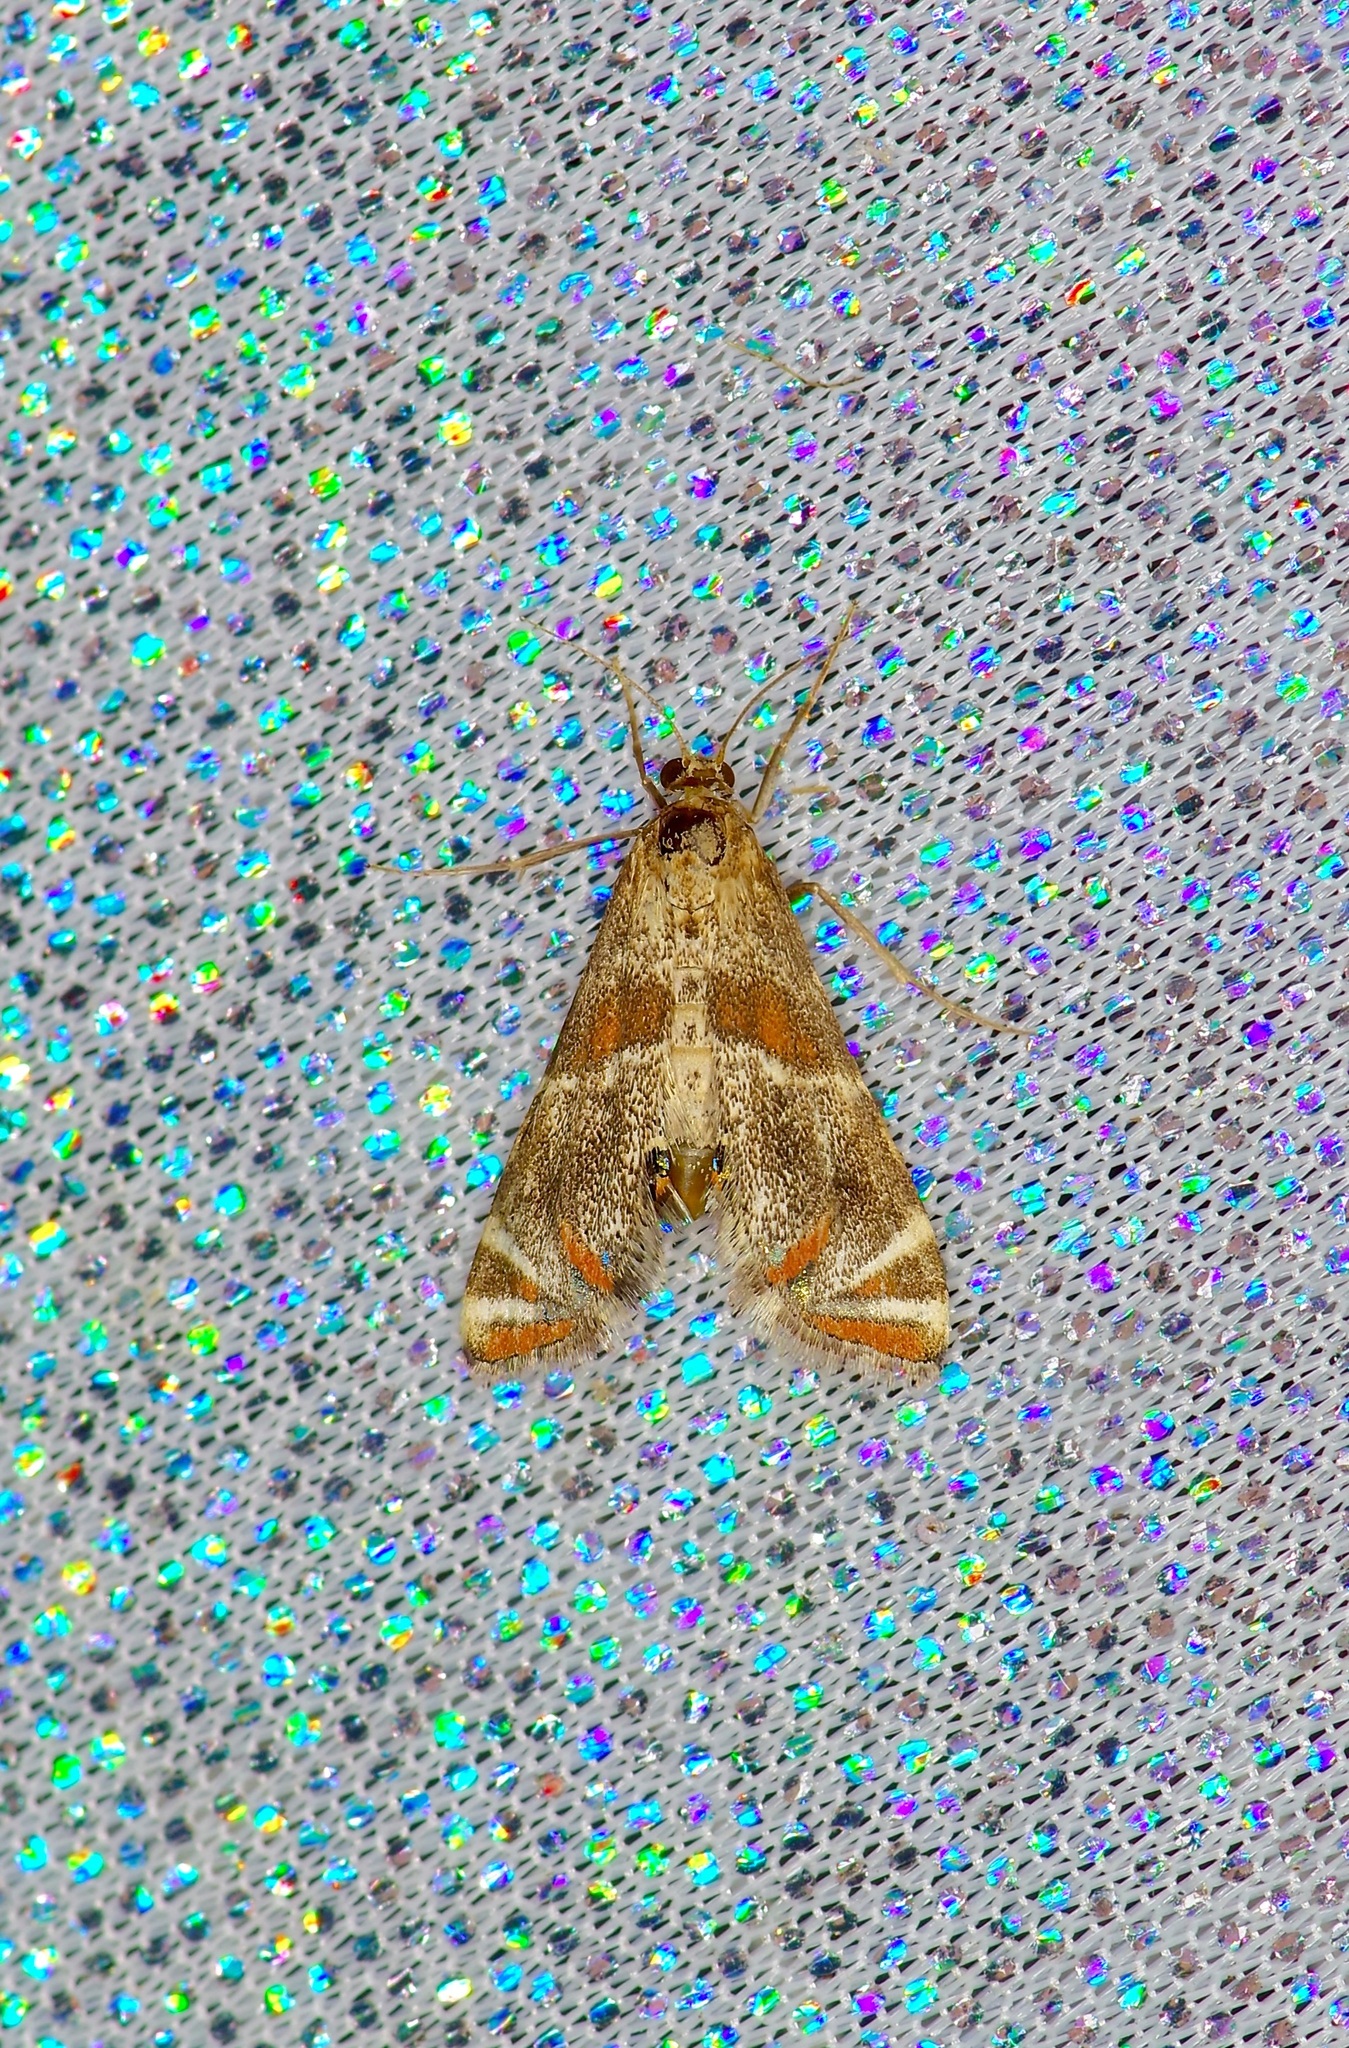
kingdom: Animalia
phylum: Arthropoda
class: Insecta
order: Lepidoptera
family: Crambidae
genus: Petrophila
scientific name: Petrophila jaliscalis
